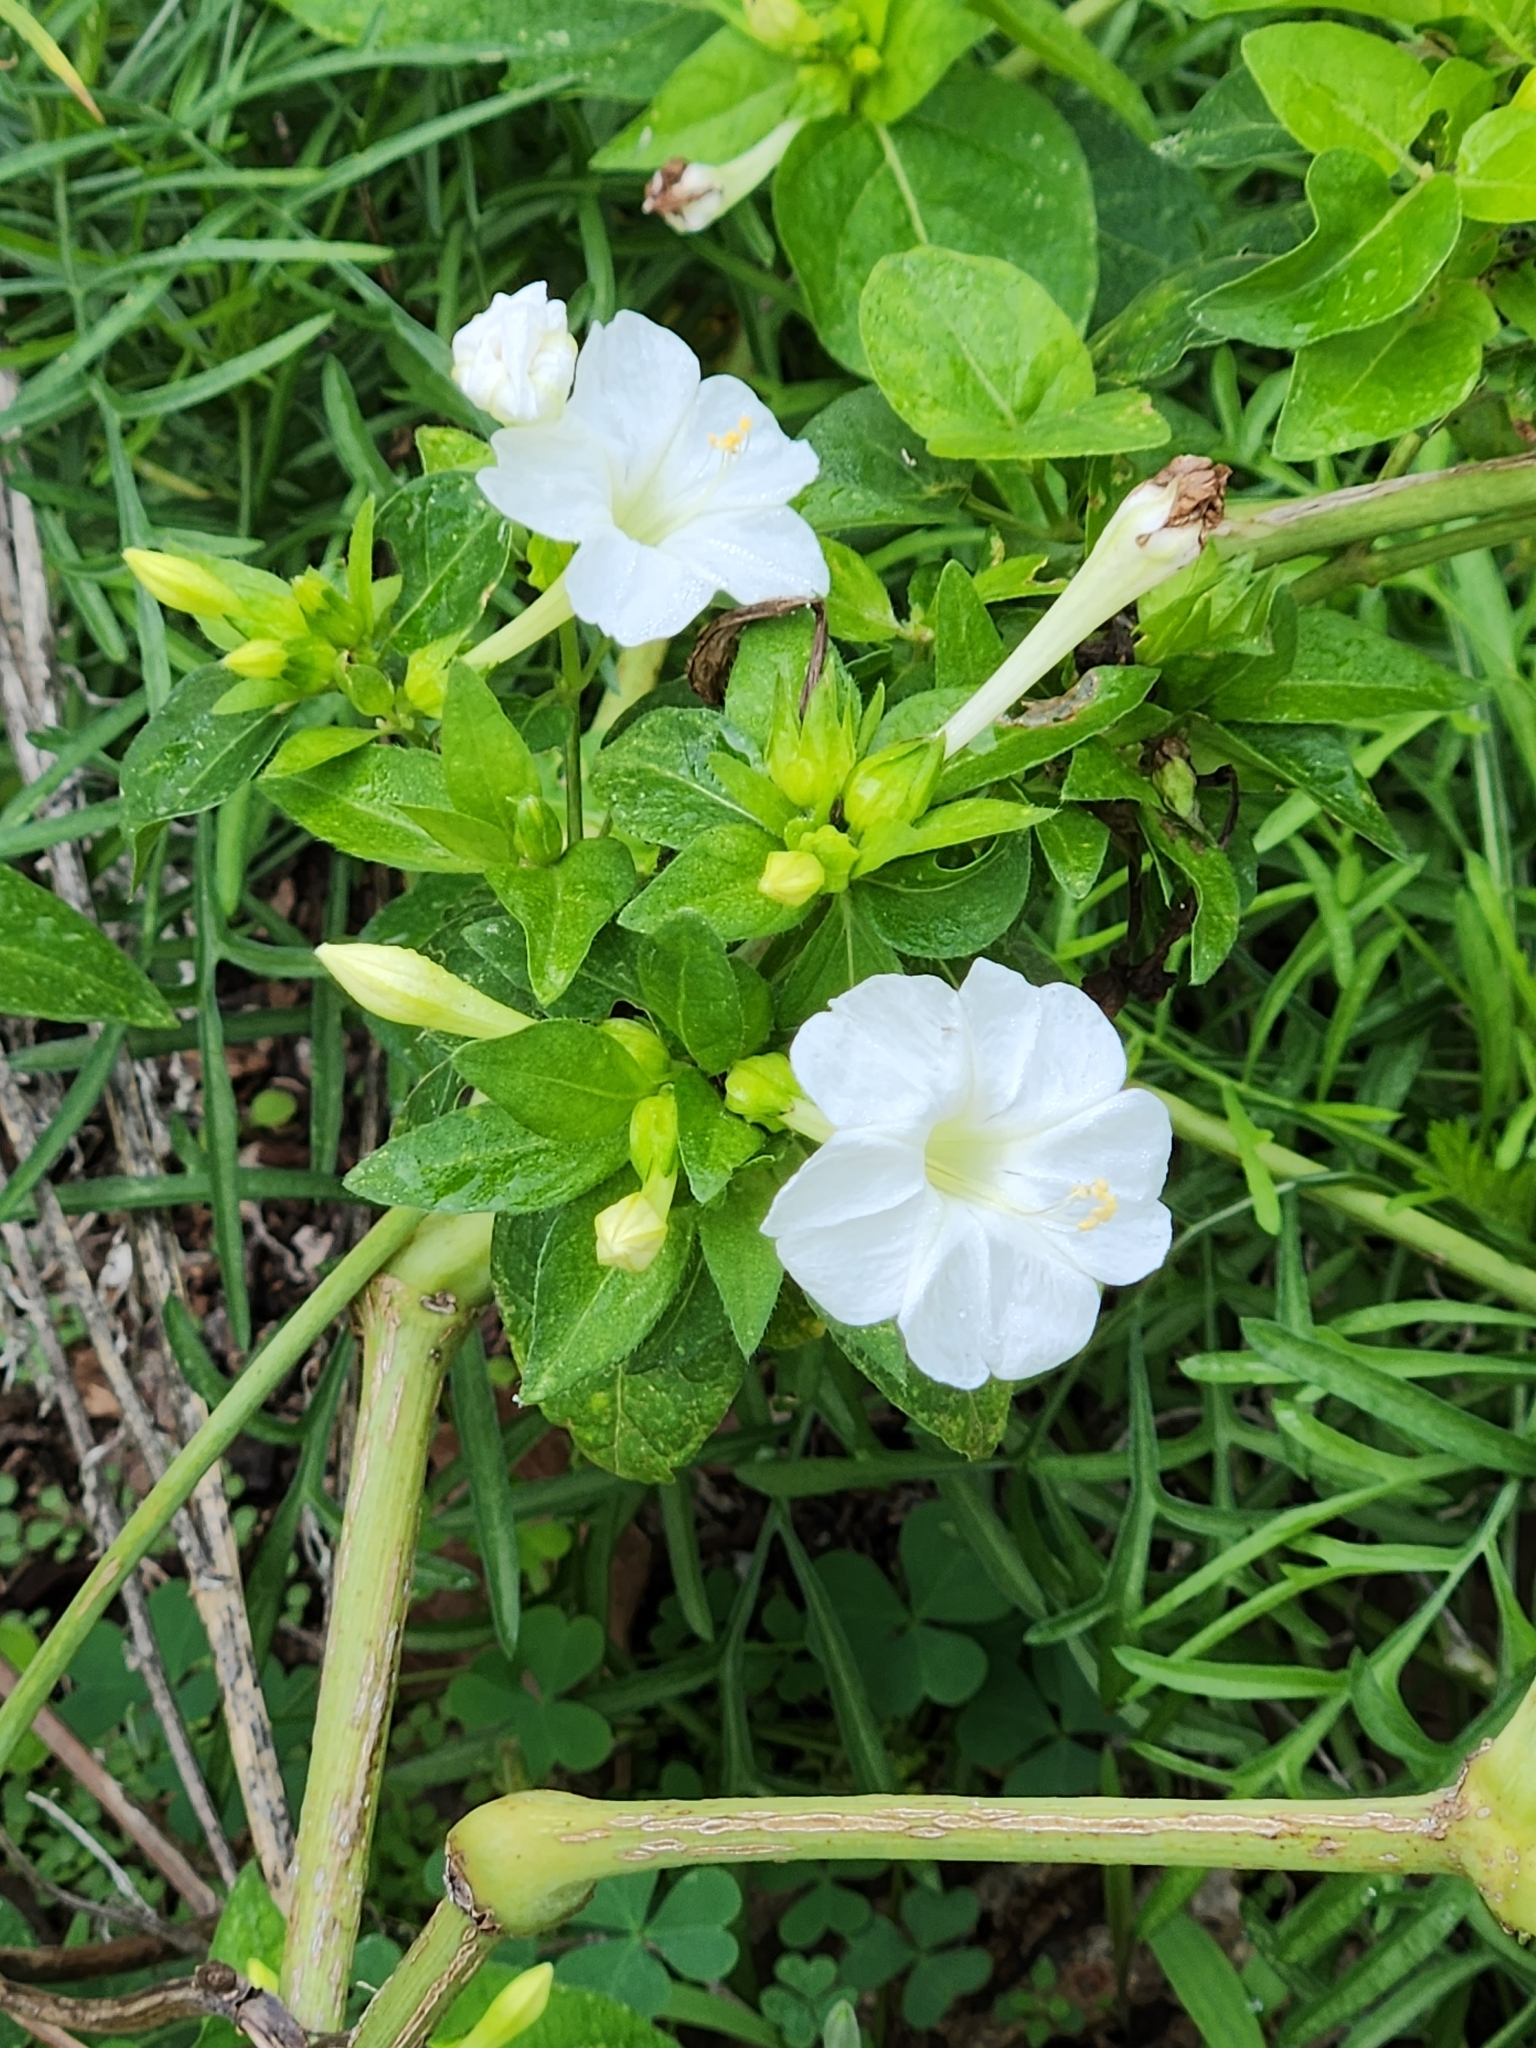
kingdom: Plantae
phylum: Tracheophyta
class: Magnoliopsida
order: Caryophyllales
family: Nyctaginaceae
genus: Mirabilis
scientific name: Mirabilis jalapa
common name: Marvel-of-peru
